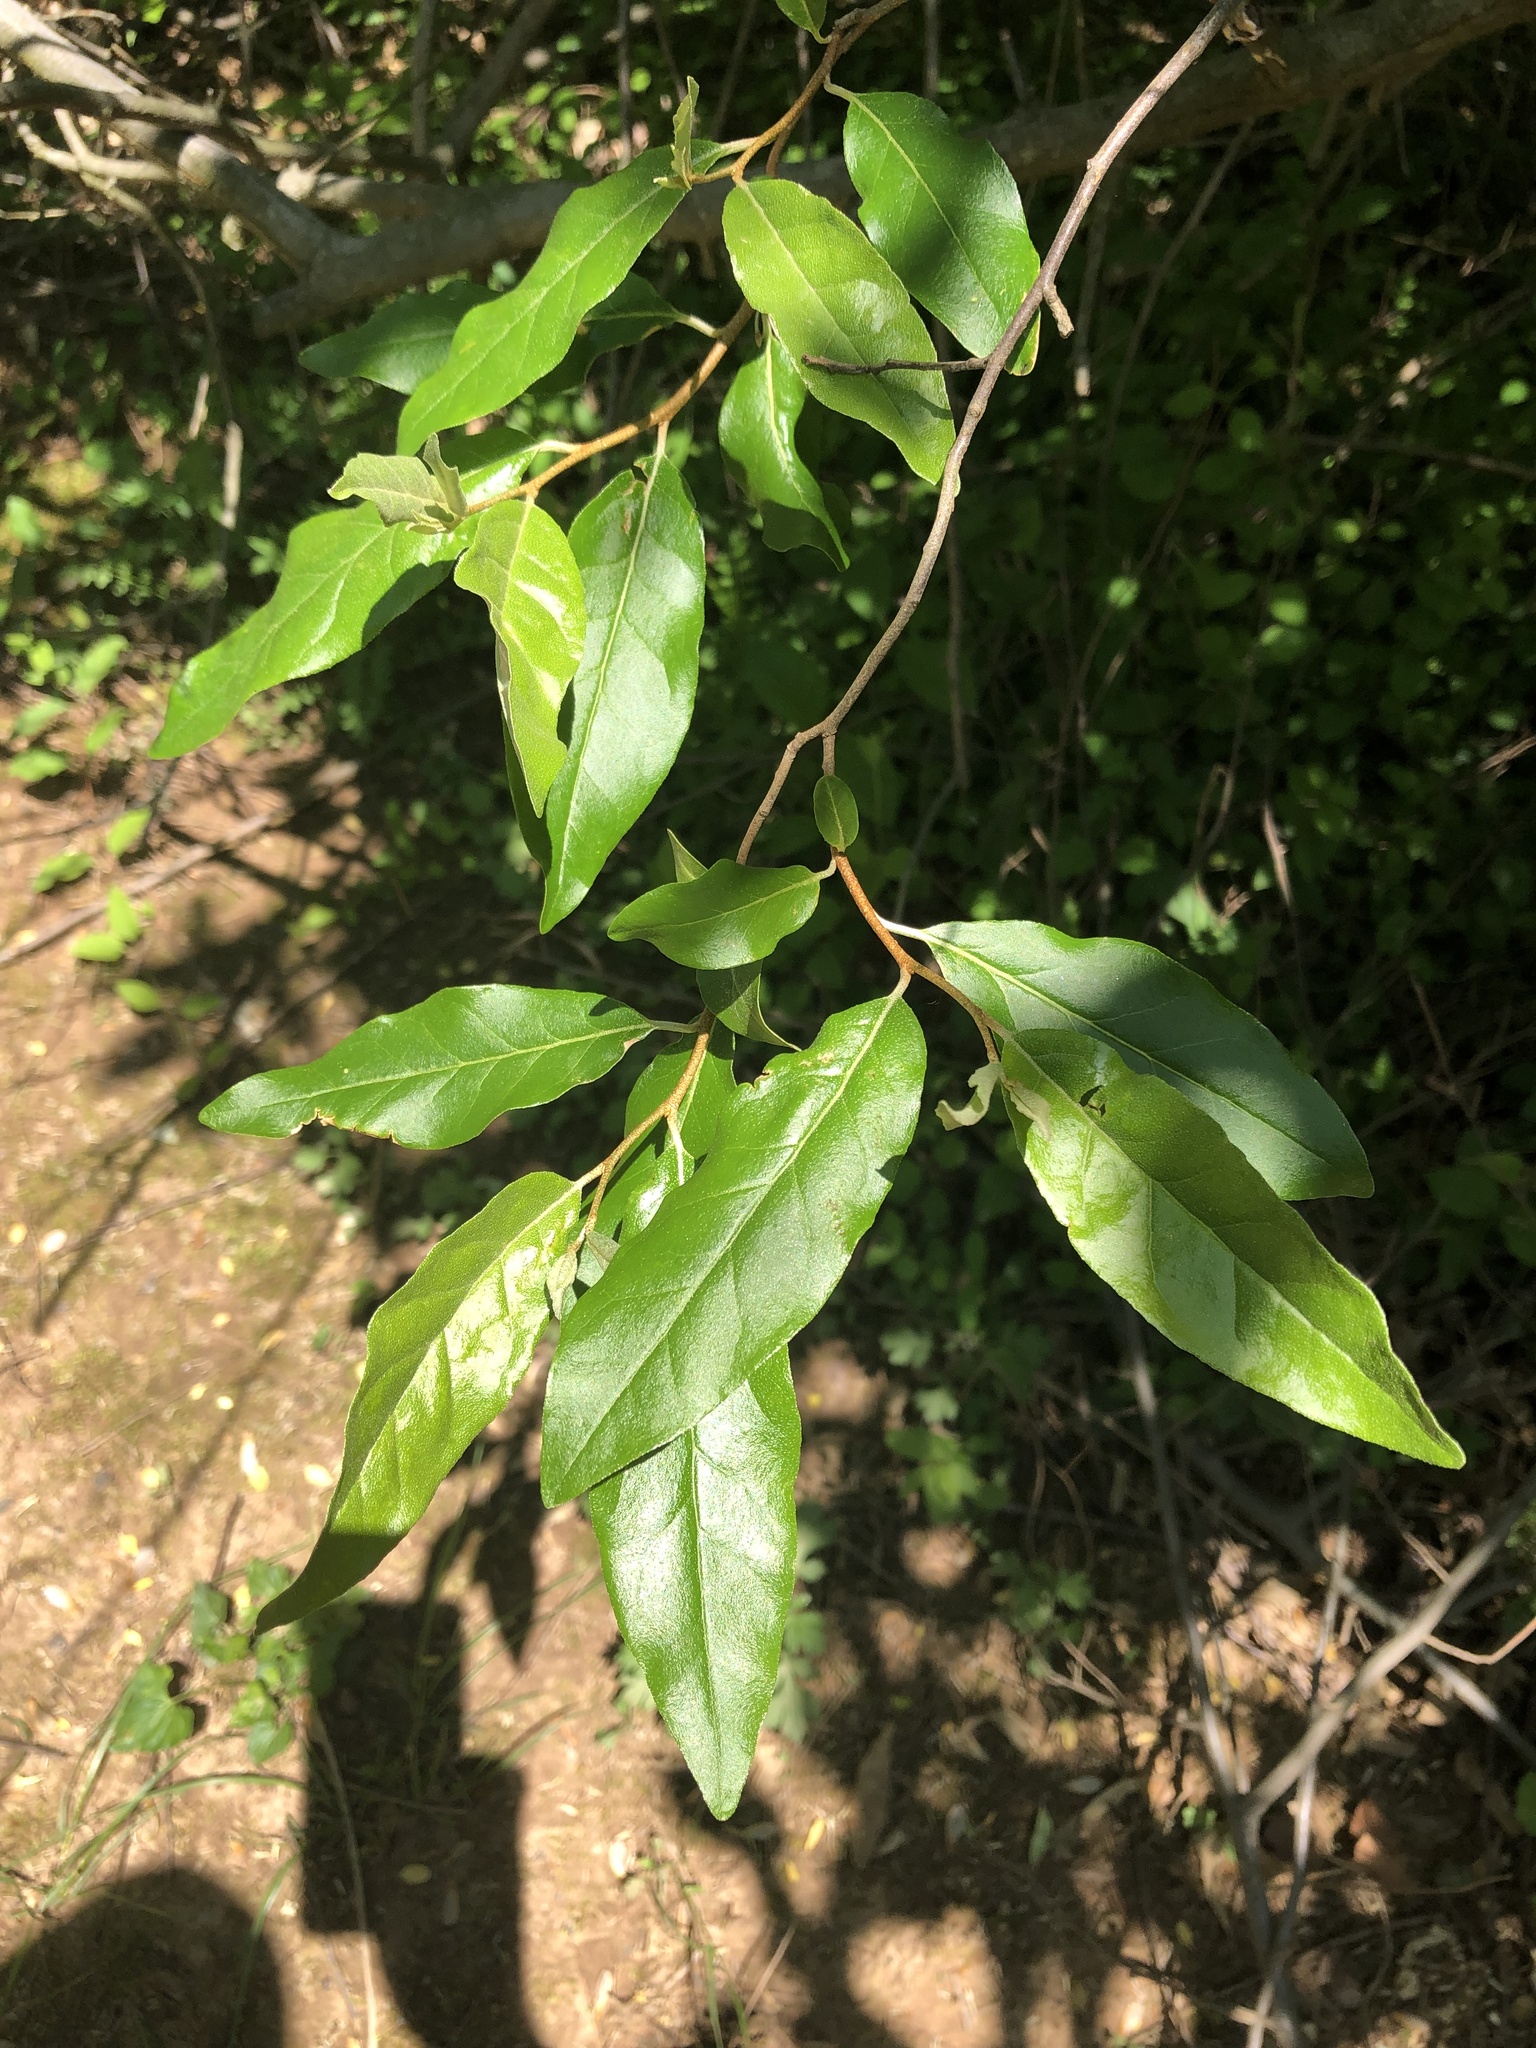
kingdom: Plantae
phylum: Tracheophyta
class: Magnoliopsida
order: Rosales
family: Elaeagnaceae
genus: Elaeagnus
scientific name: Elaeagnus umbellata
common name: Autumn olive
